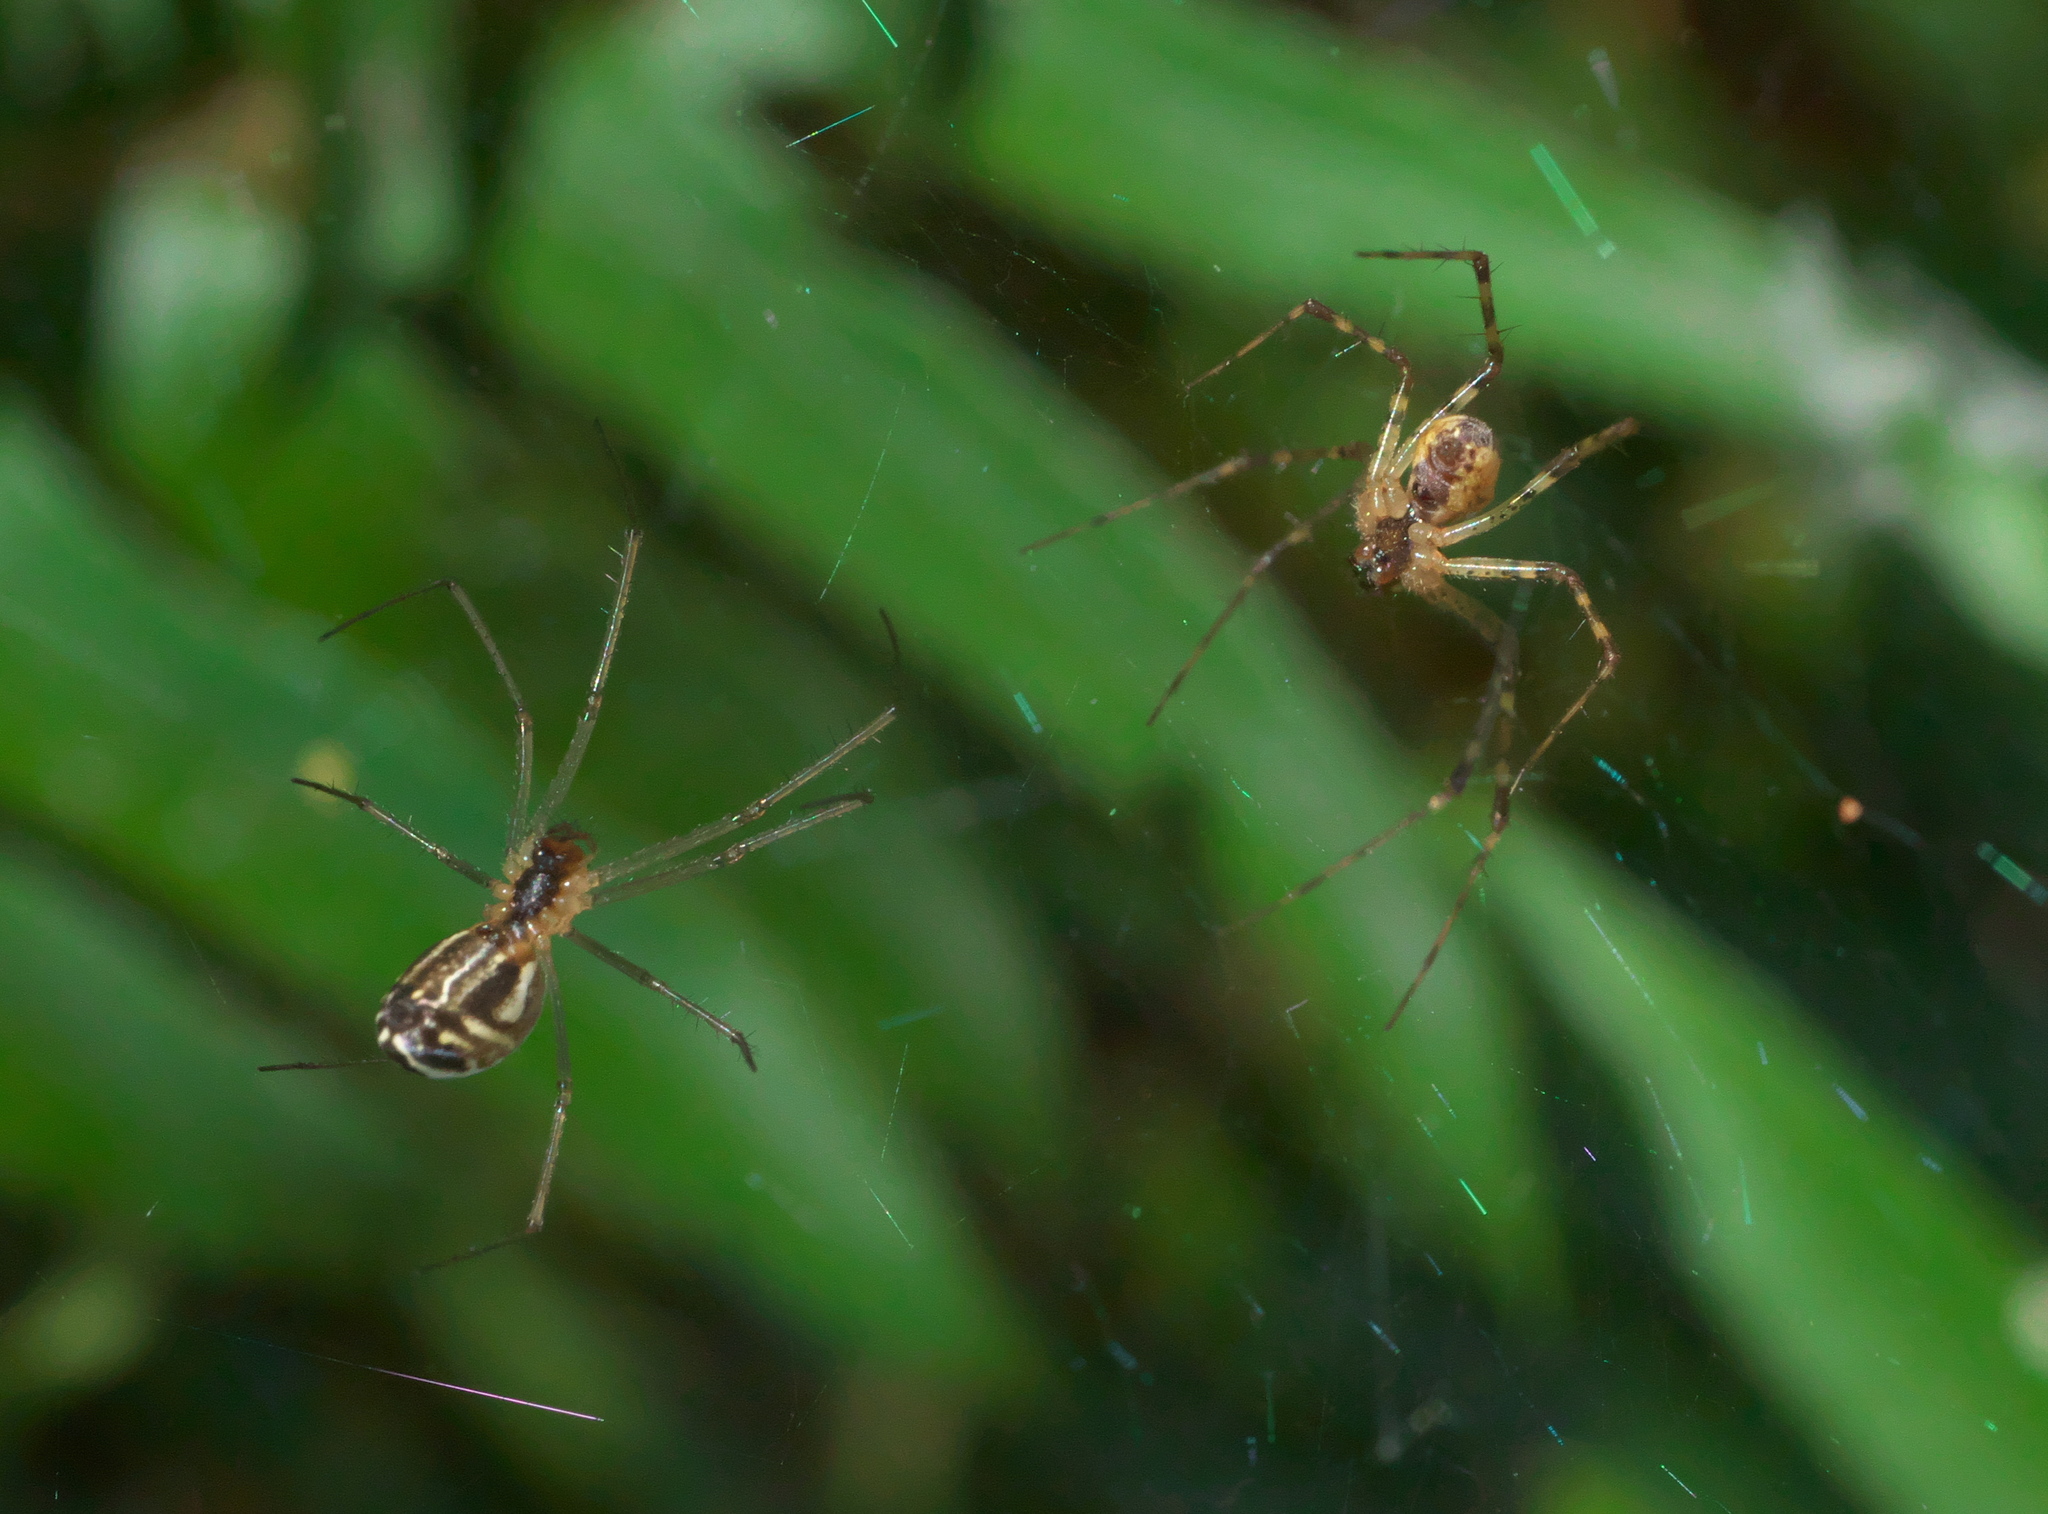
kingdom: Animalia
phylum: Arthropoda
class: Arachnida
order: Araneae
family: Linyphiidae
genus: Neriene
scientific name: Neriene litigiosa
